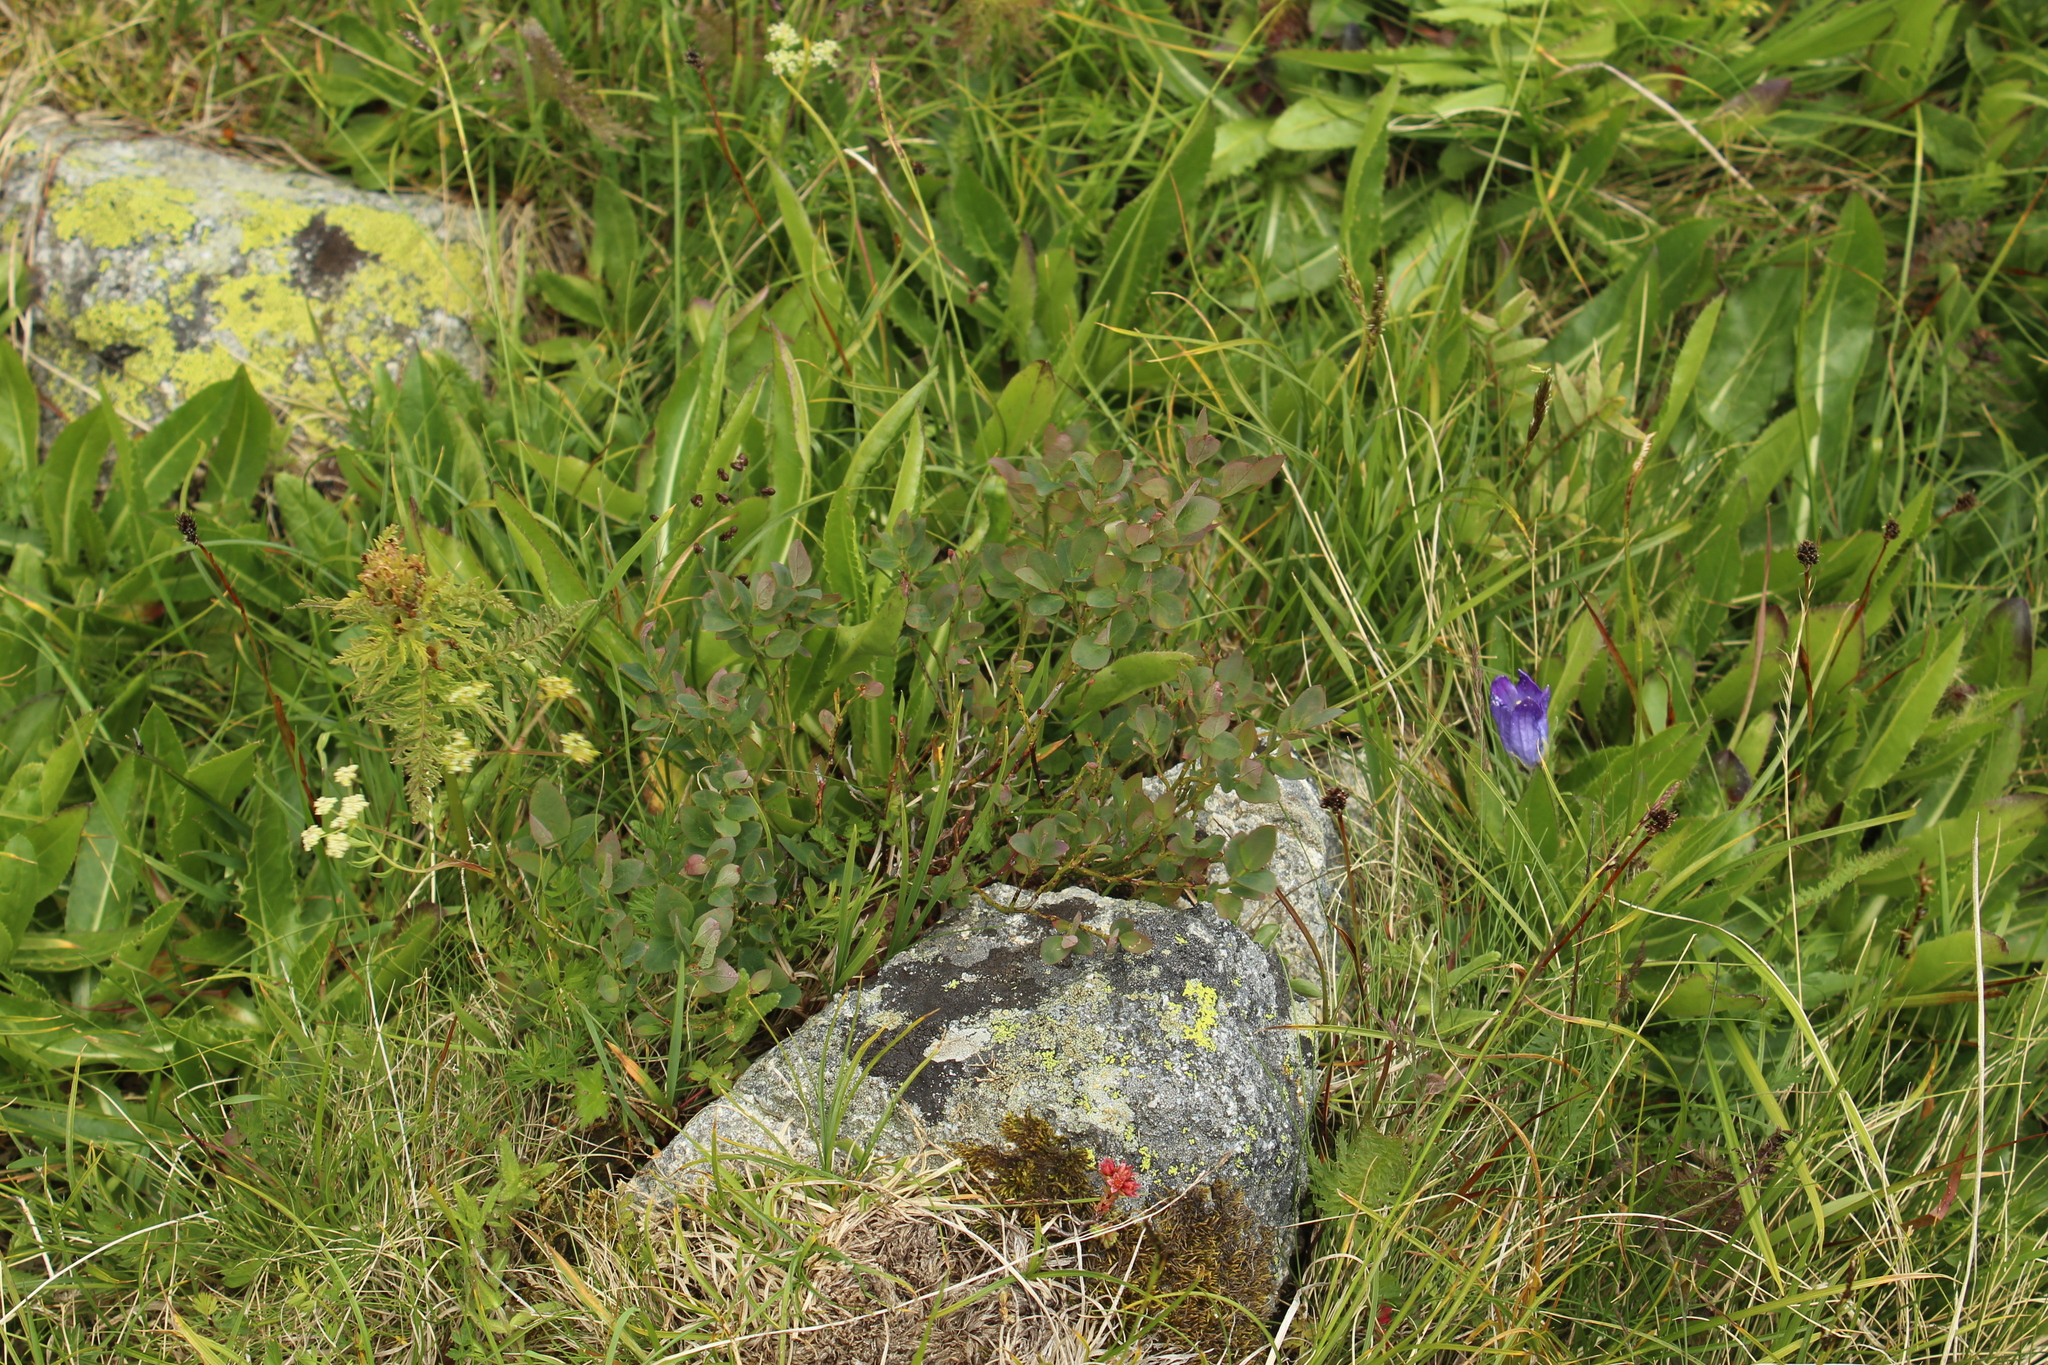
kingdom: Plantae
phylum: Tracheophyta
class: Magnoliopsida
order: Ericales
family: Ericaceae
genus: Vaccinium
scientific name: Vaccinium myrtillus
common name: Bilberry
